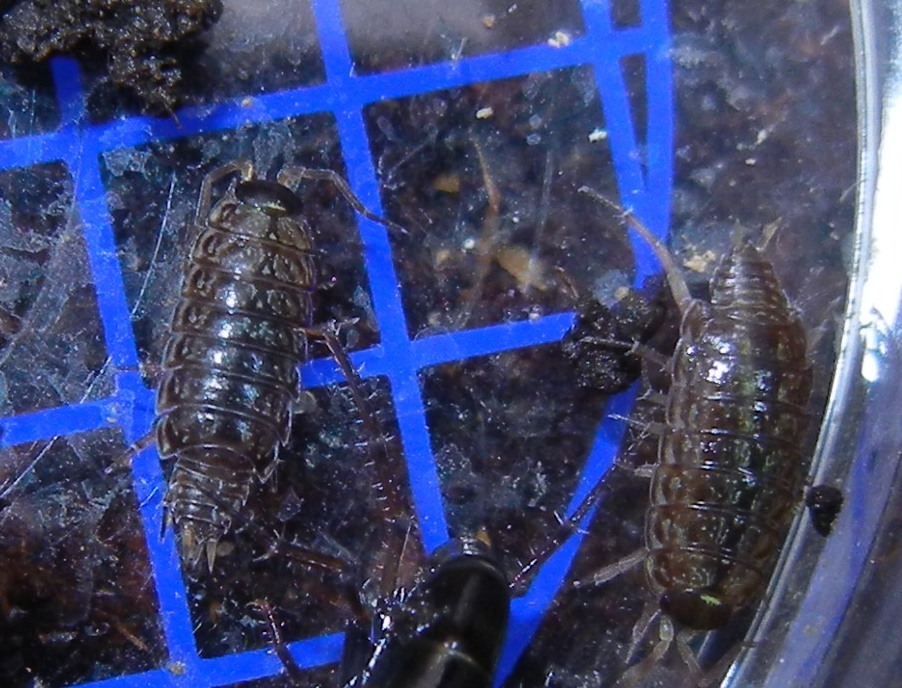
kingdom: Animalia
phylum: Arthropoda
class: Malacostraca
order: Isopoda
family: Philosciidae
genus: Philoscia
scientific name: Philoscia muscorum
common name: Common striped woodlouse
